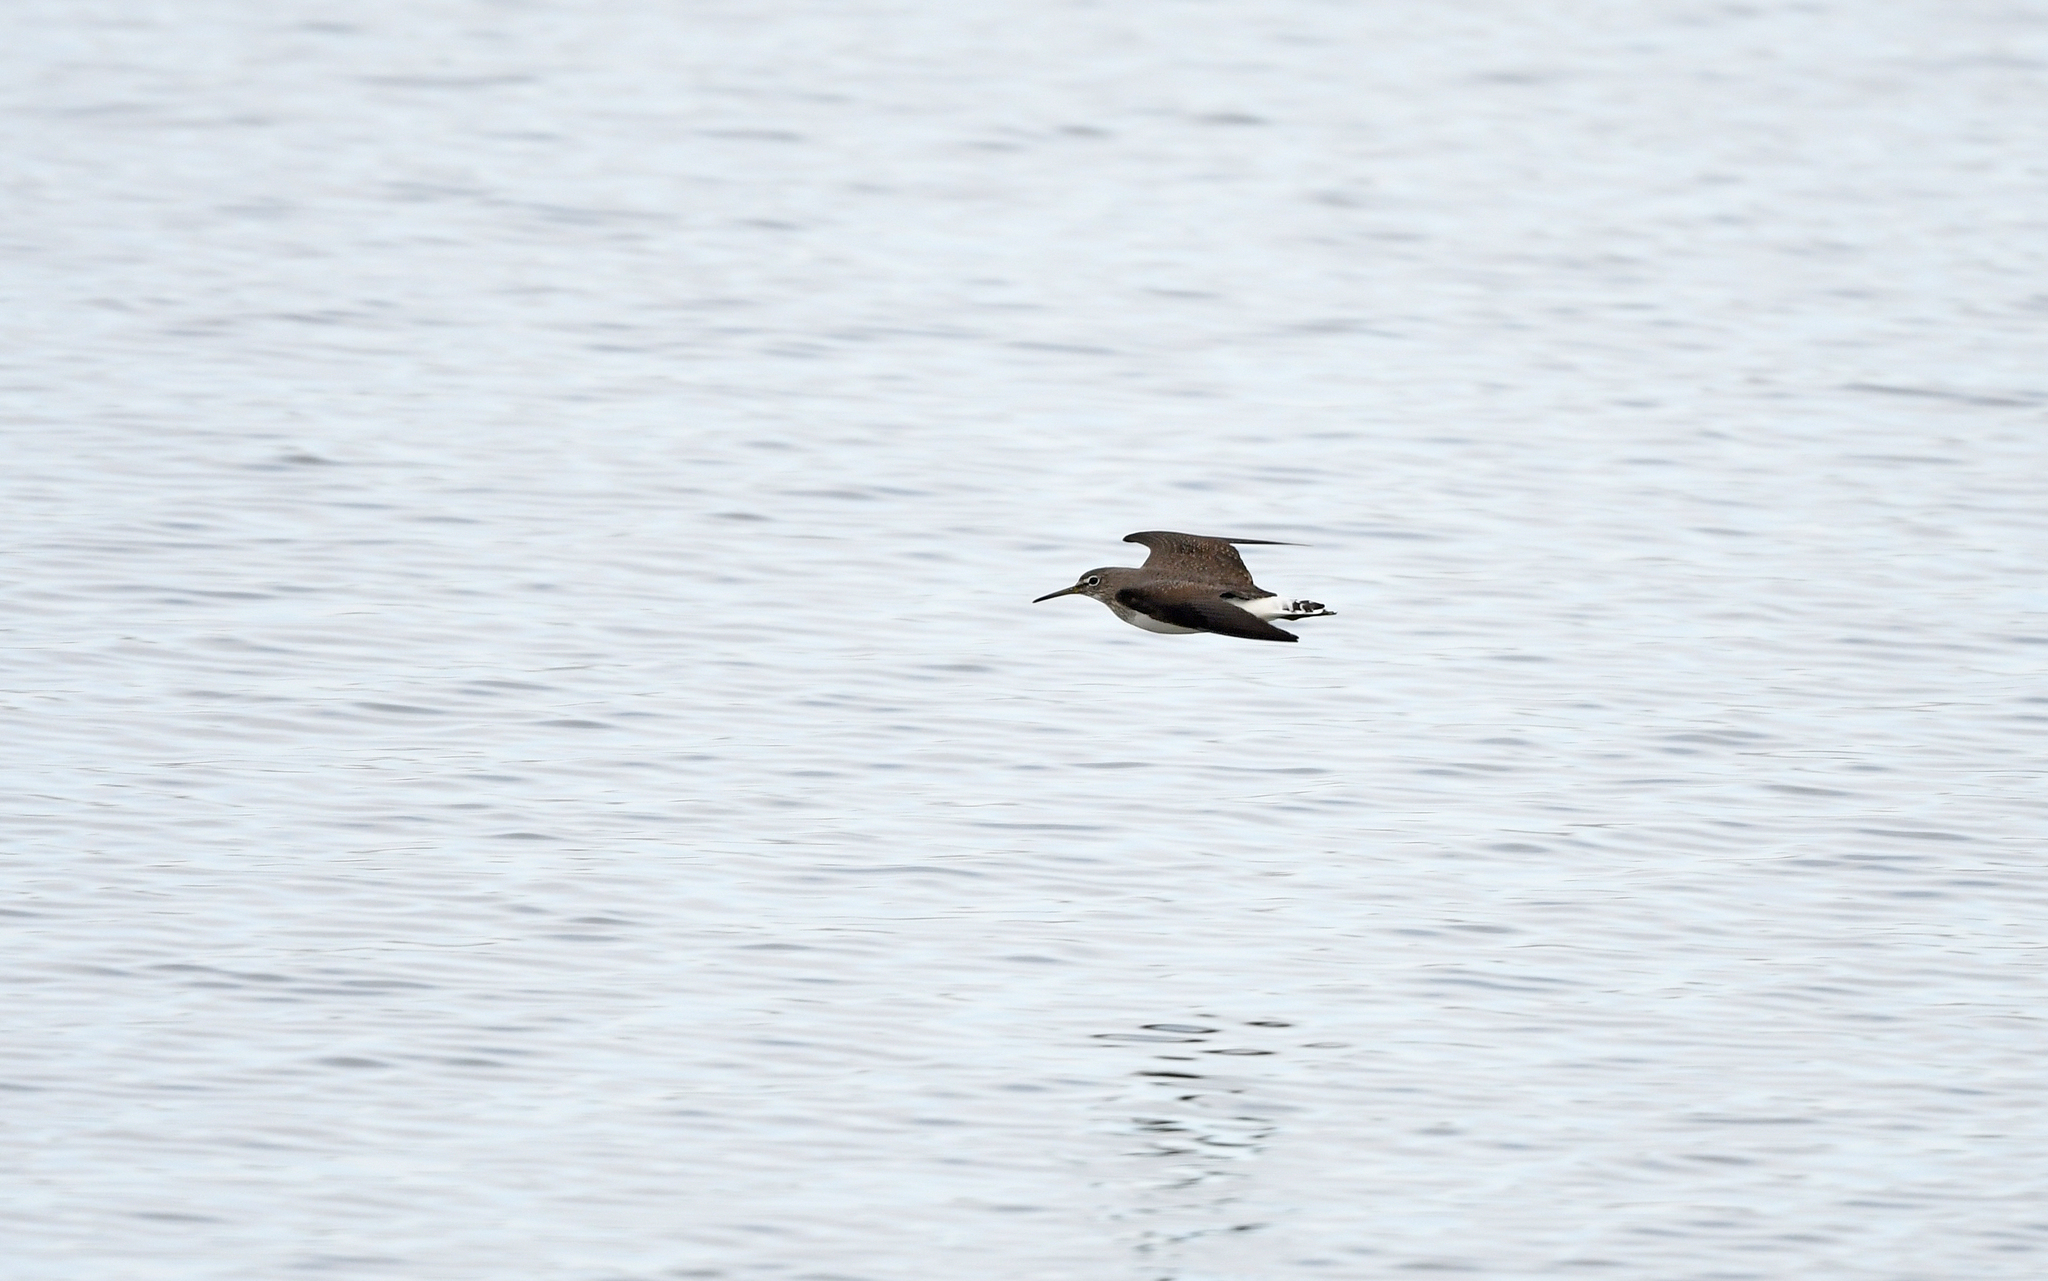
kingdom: Animalia
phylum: Chordata
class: Aves
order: Charadriiformes
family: Scolopacidae
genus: Tringa
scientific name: Tringa ochropus
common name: Green sandpiper
